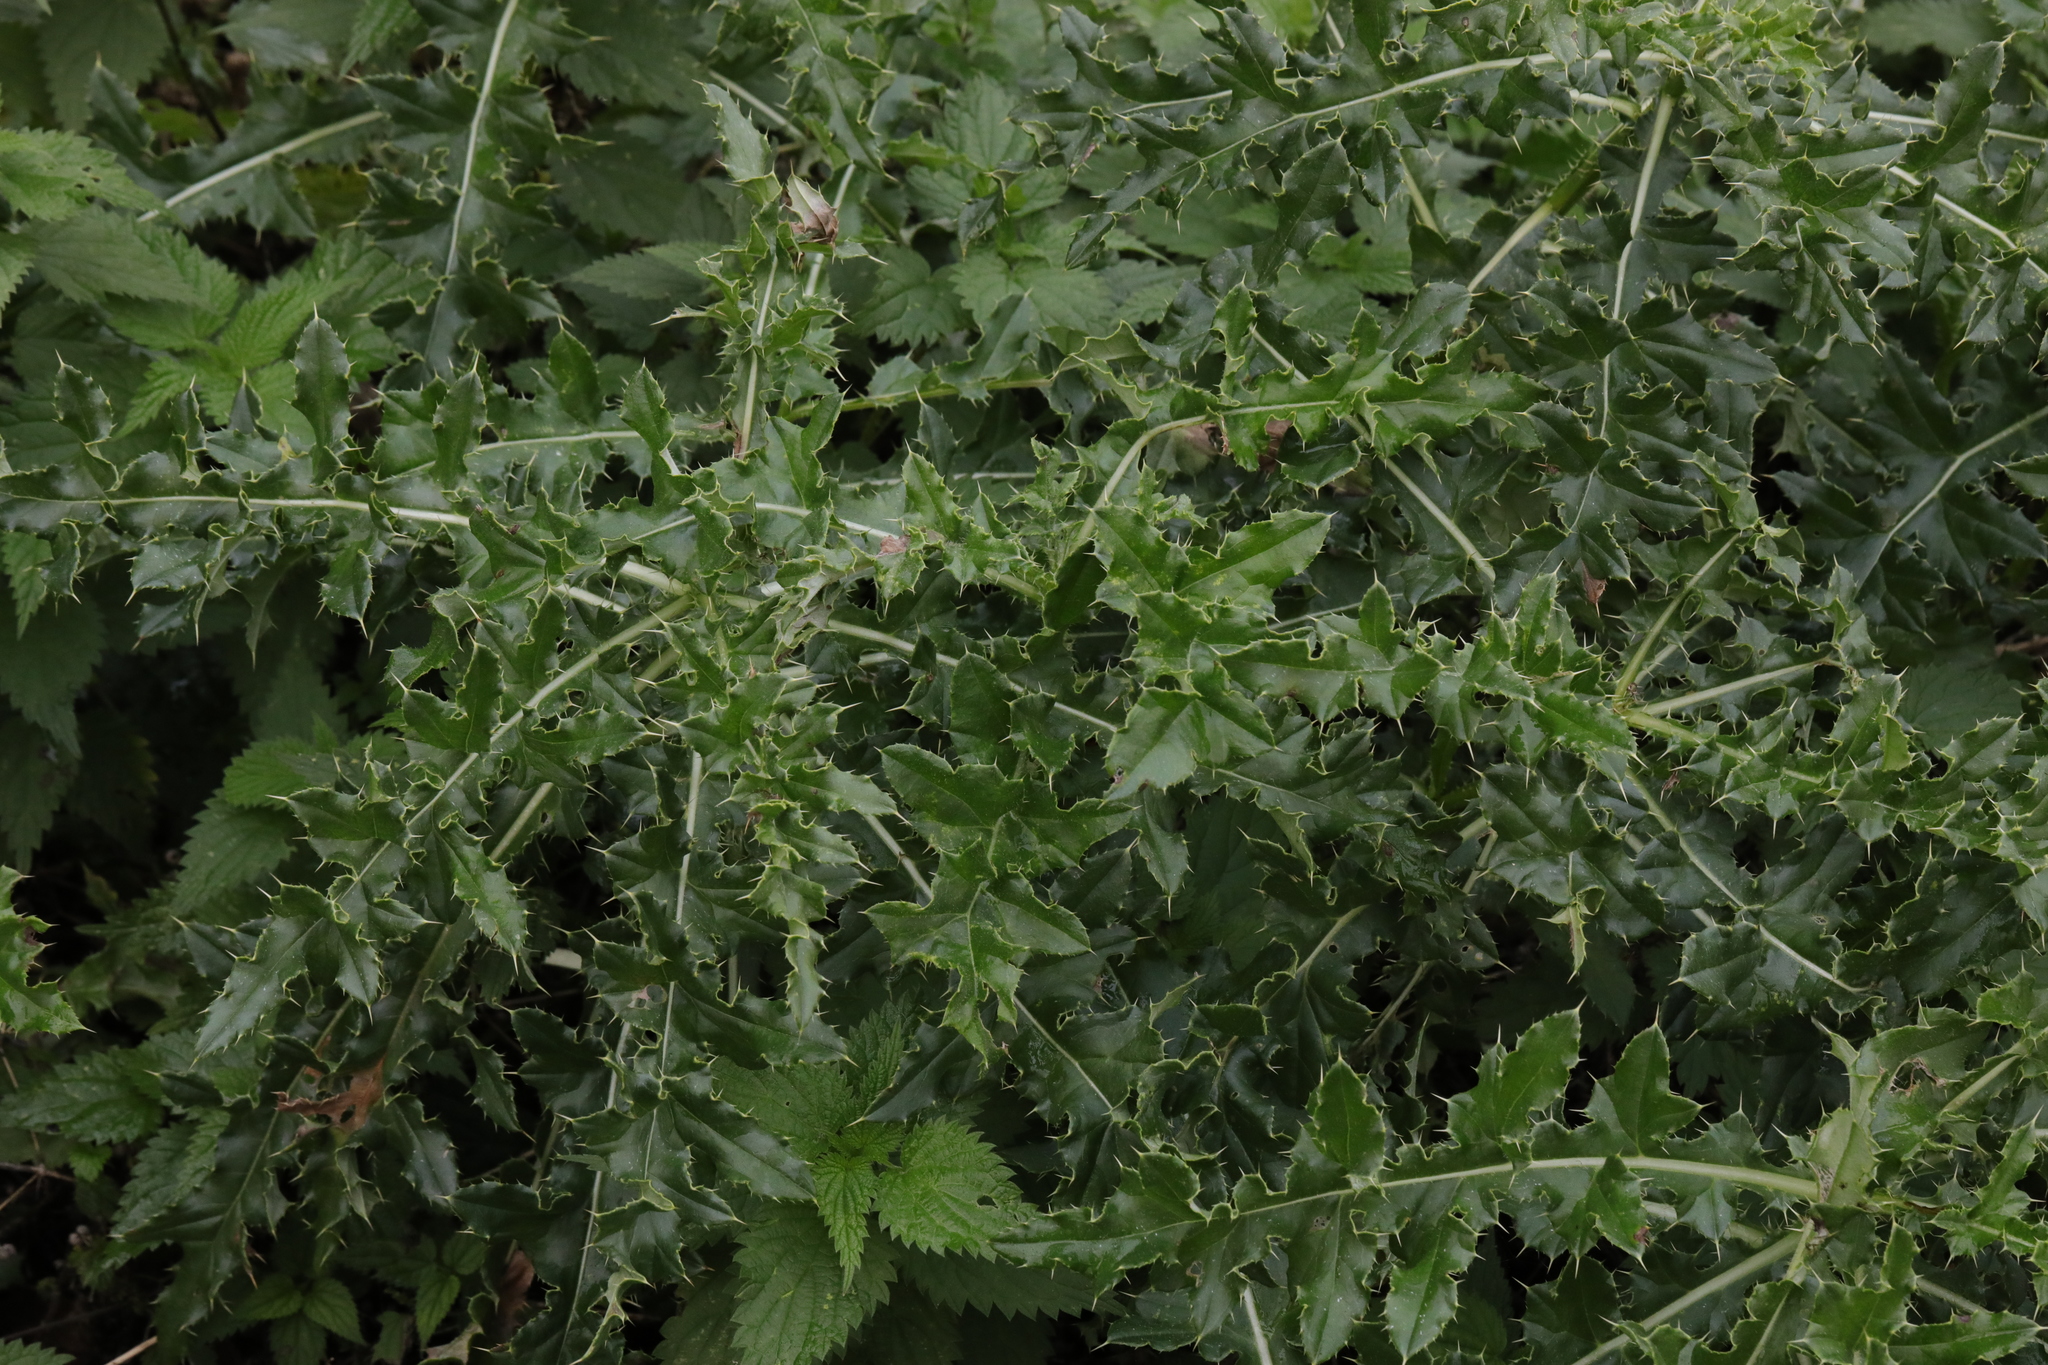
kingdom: Plantae
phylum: Tracheophyta
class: Magnoliopsida
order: Asterales
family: Asteraceae
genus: Cirsium
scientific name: Cirsium arvense
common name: Creeping thistle
